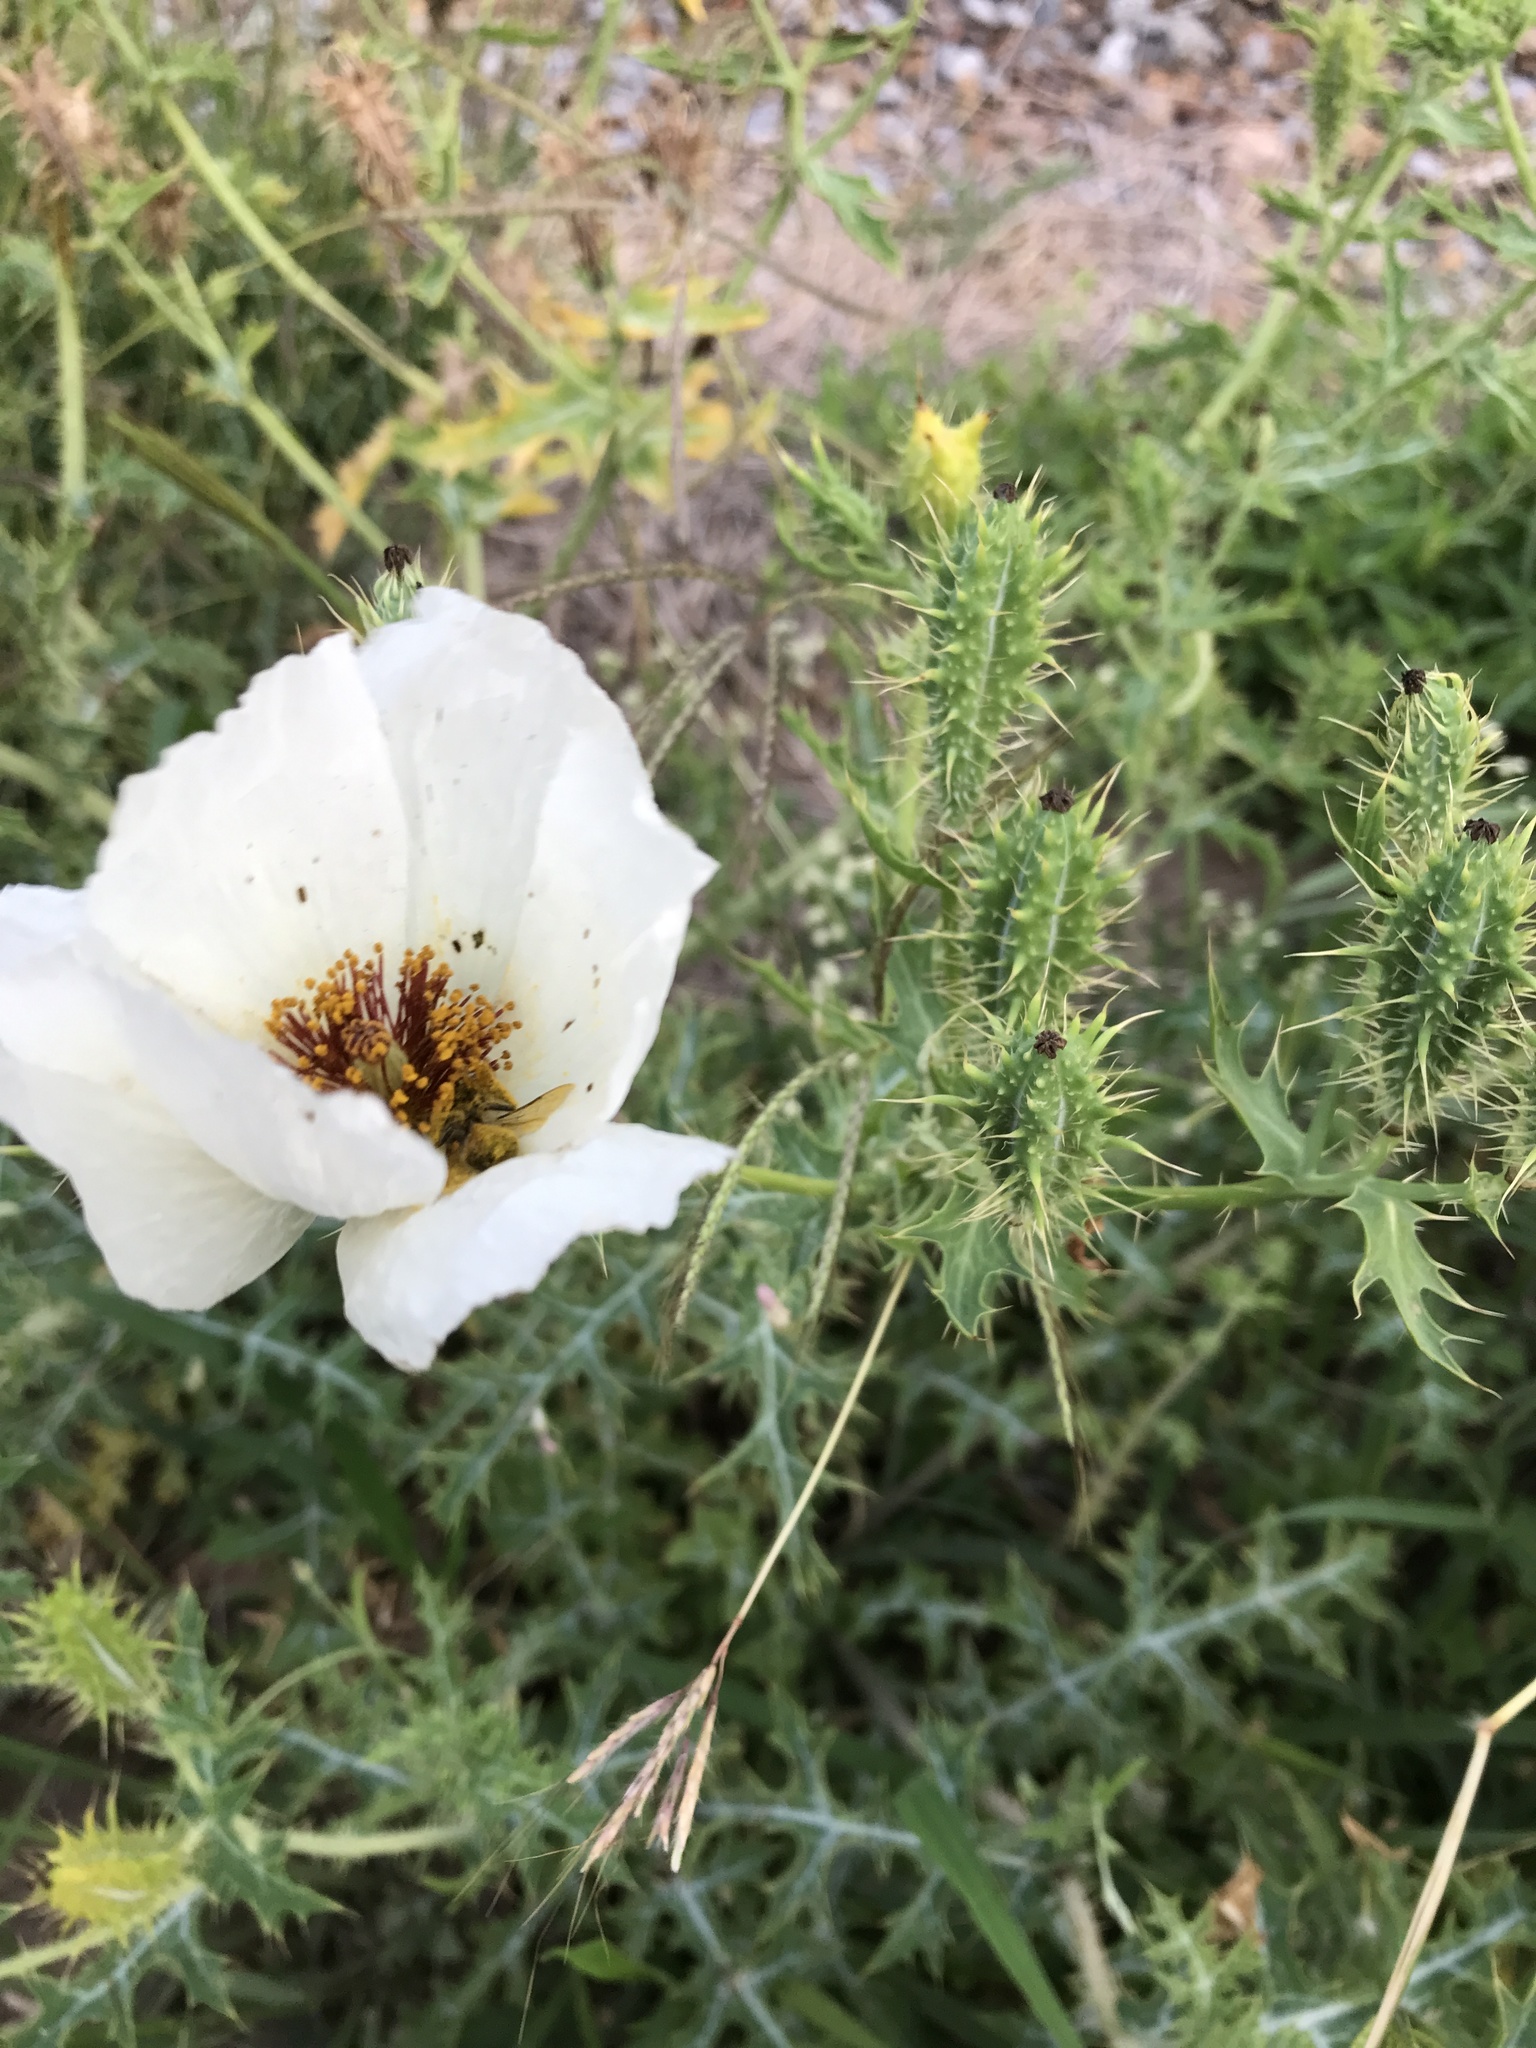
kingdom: Plantae
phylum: Tracheophyta
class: Magnoliopsida
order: Ranunculales
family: Papaveraceae
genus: Argemone
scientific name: Argemone sanguinea
